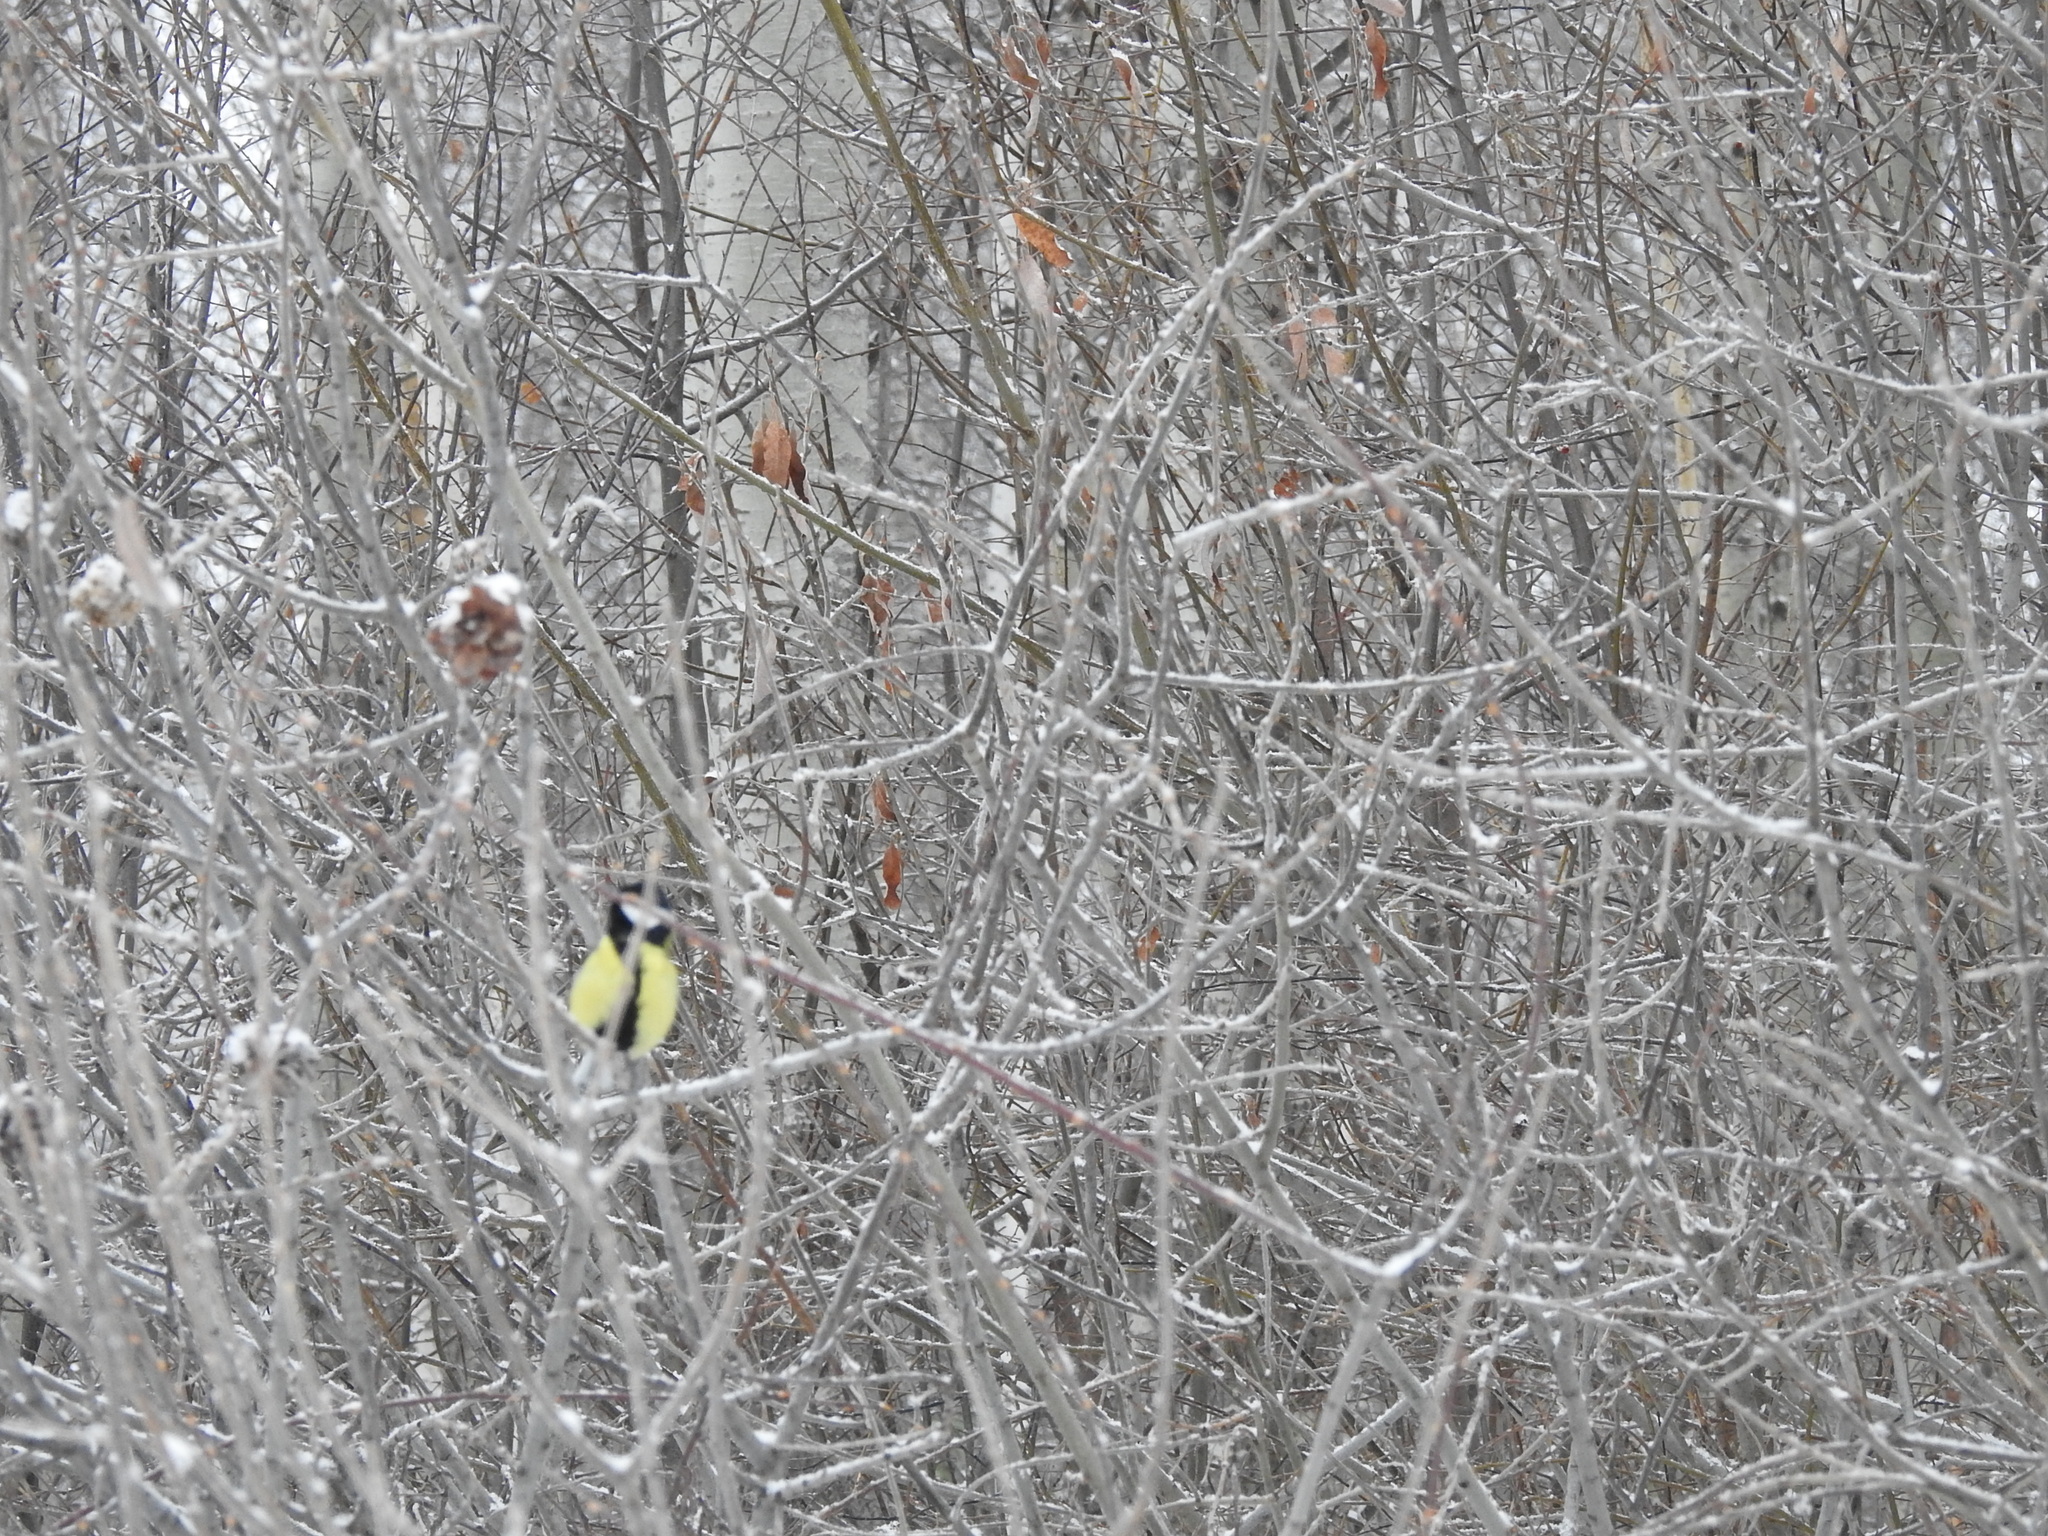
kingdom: Animalia
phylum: Chordata
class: Aves
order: Passeriformes
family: Paridae
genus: Parus
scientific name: Parus major
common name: Great tit
